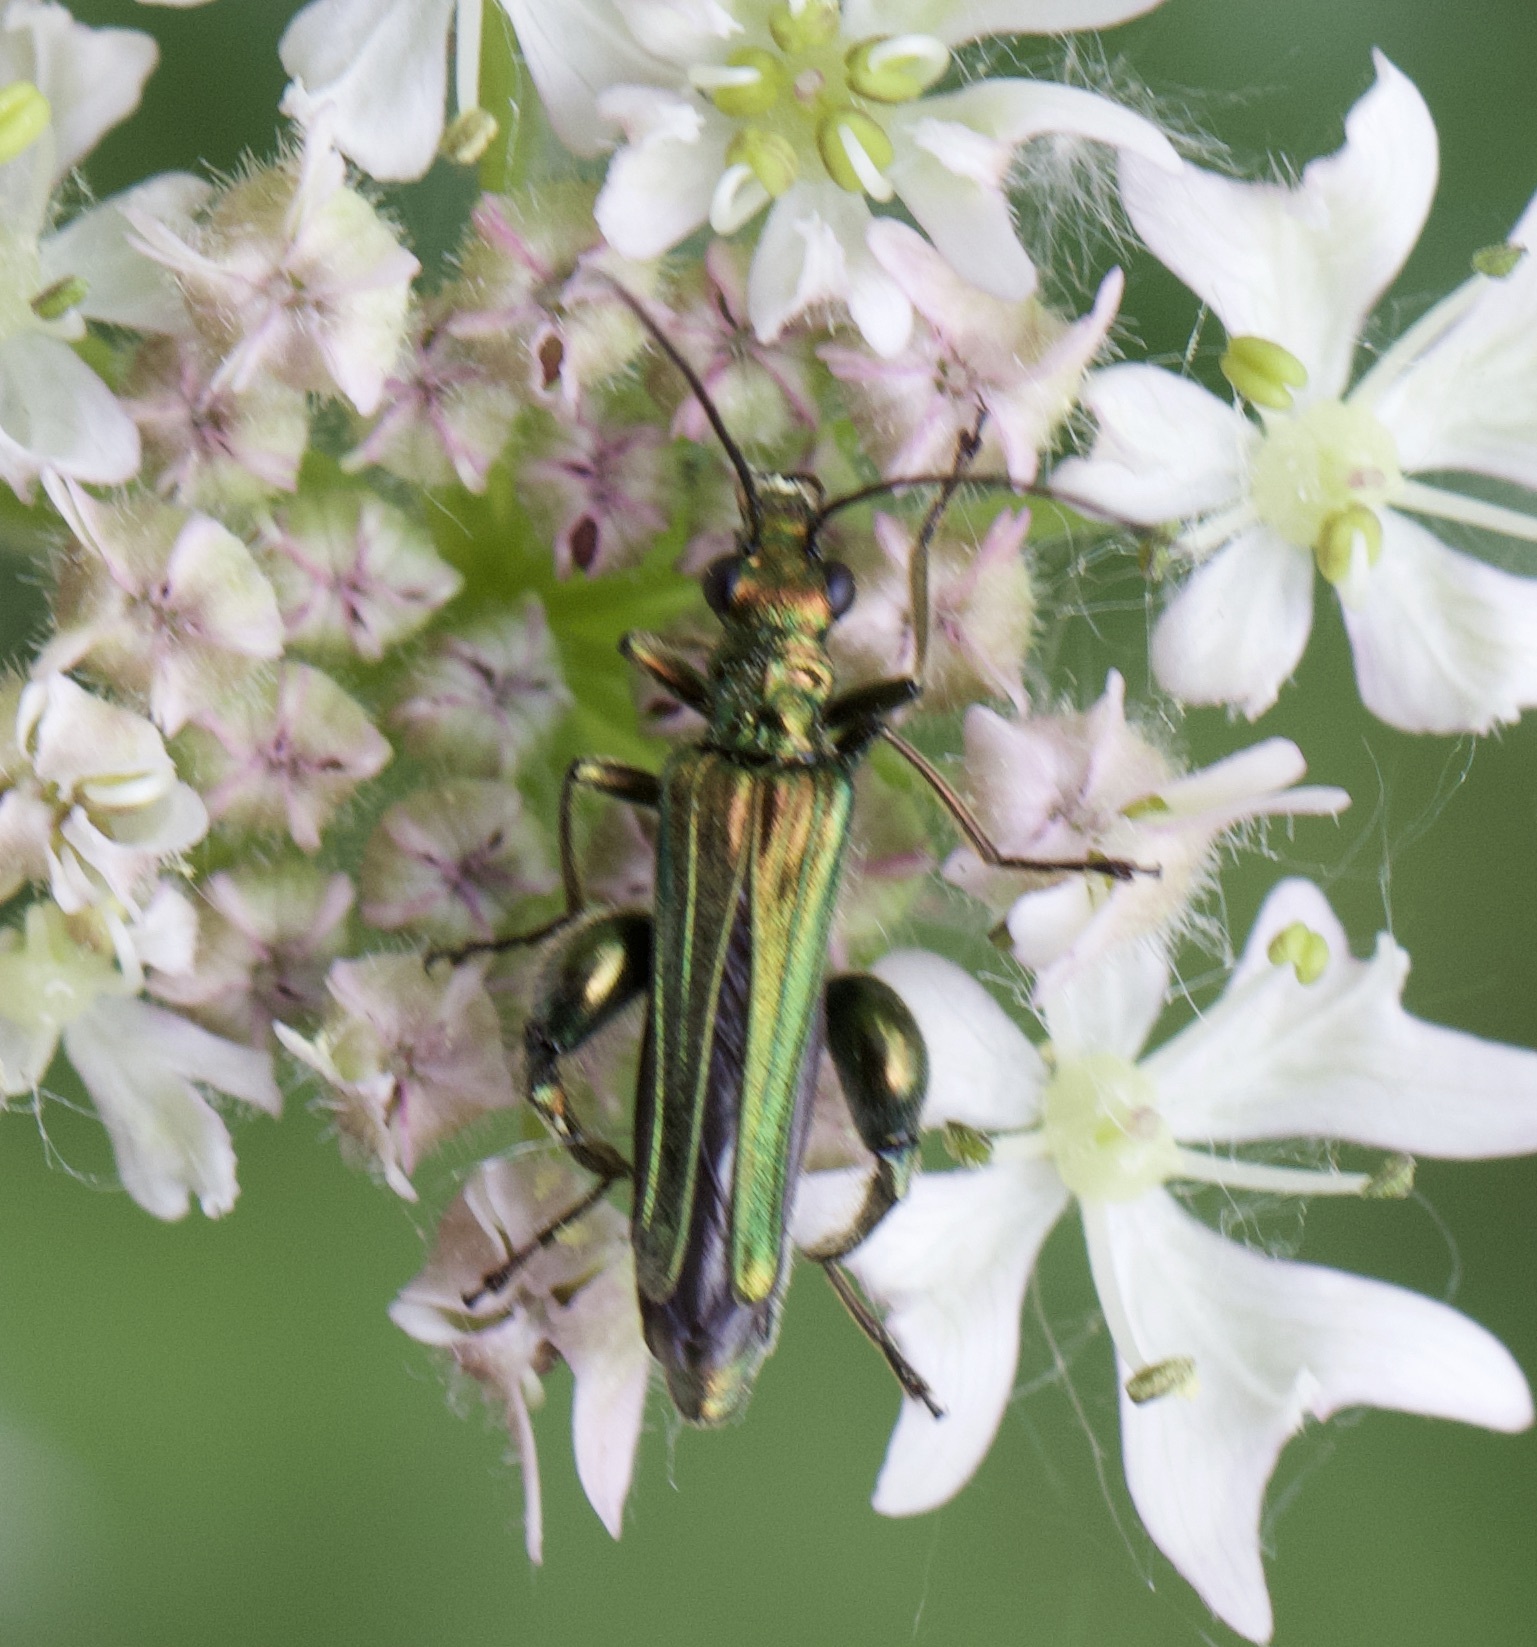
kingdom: Animalia
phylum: Arthropoda
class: Insecta
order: Coleoptera
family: Oedemeridae
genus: Oedemera
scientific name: Oedemera nobilis
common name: Swollen-thighed beetle
